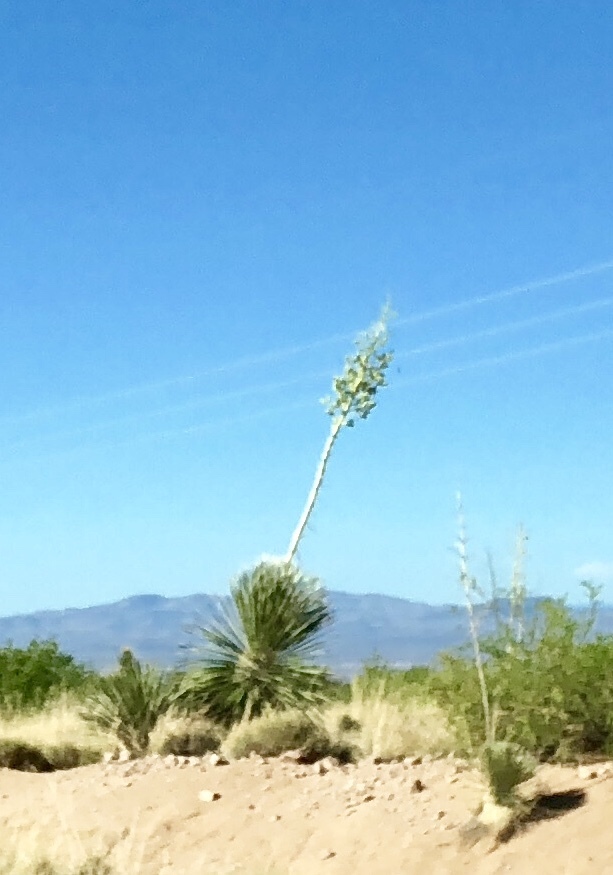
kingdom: Plantae
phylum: Tracheophyta
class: Liliopsida
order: Asparagales
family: Asparagaceae
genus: Yucca
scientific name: Yucca elata
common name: Palmella
